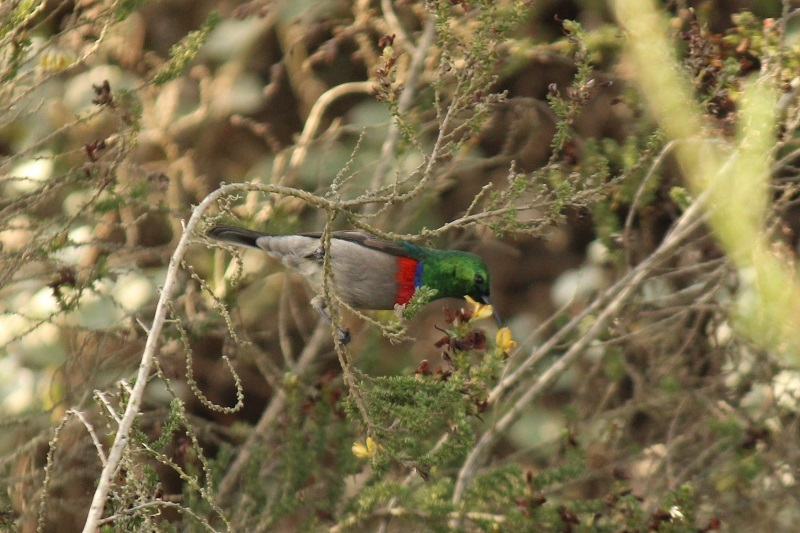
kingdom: Animalia
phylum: Chordata
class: Aves
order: Passeriformes
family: Nectariniidae
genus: Cinnyris
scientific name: Cinnyris chalybeus
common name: Southern double-collared sunbird
